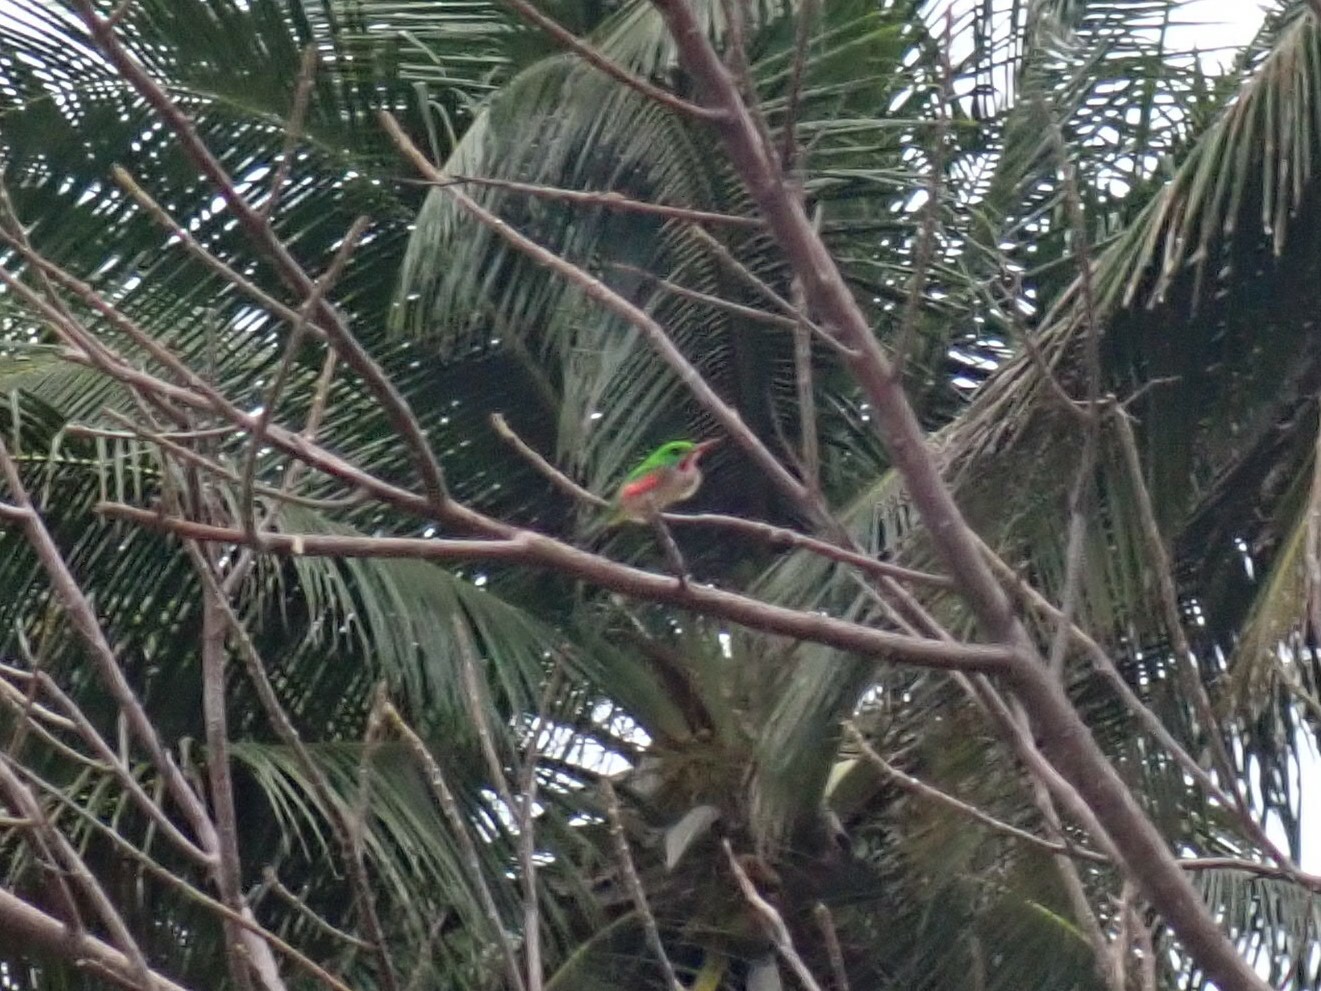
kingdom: Animalia
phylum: Chordata
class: Aves
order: Coraciiformes
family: Todidae
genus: Todus
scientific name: Todus subulatus
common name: Broad-billed tody
